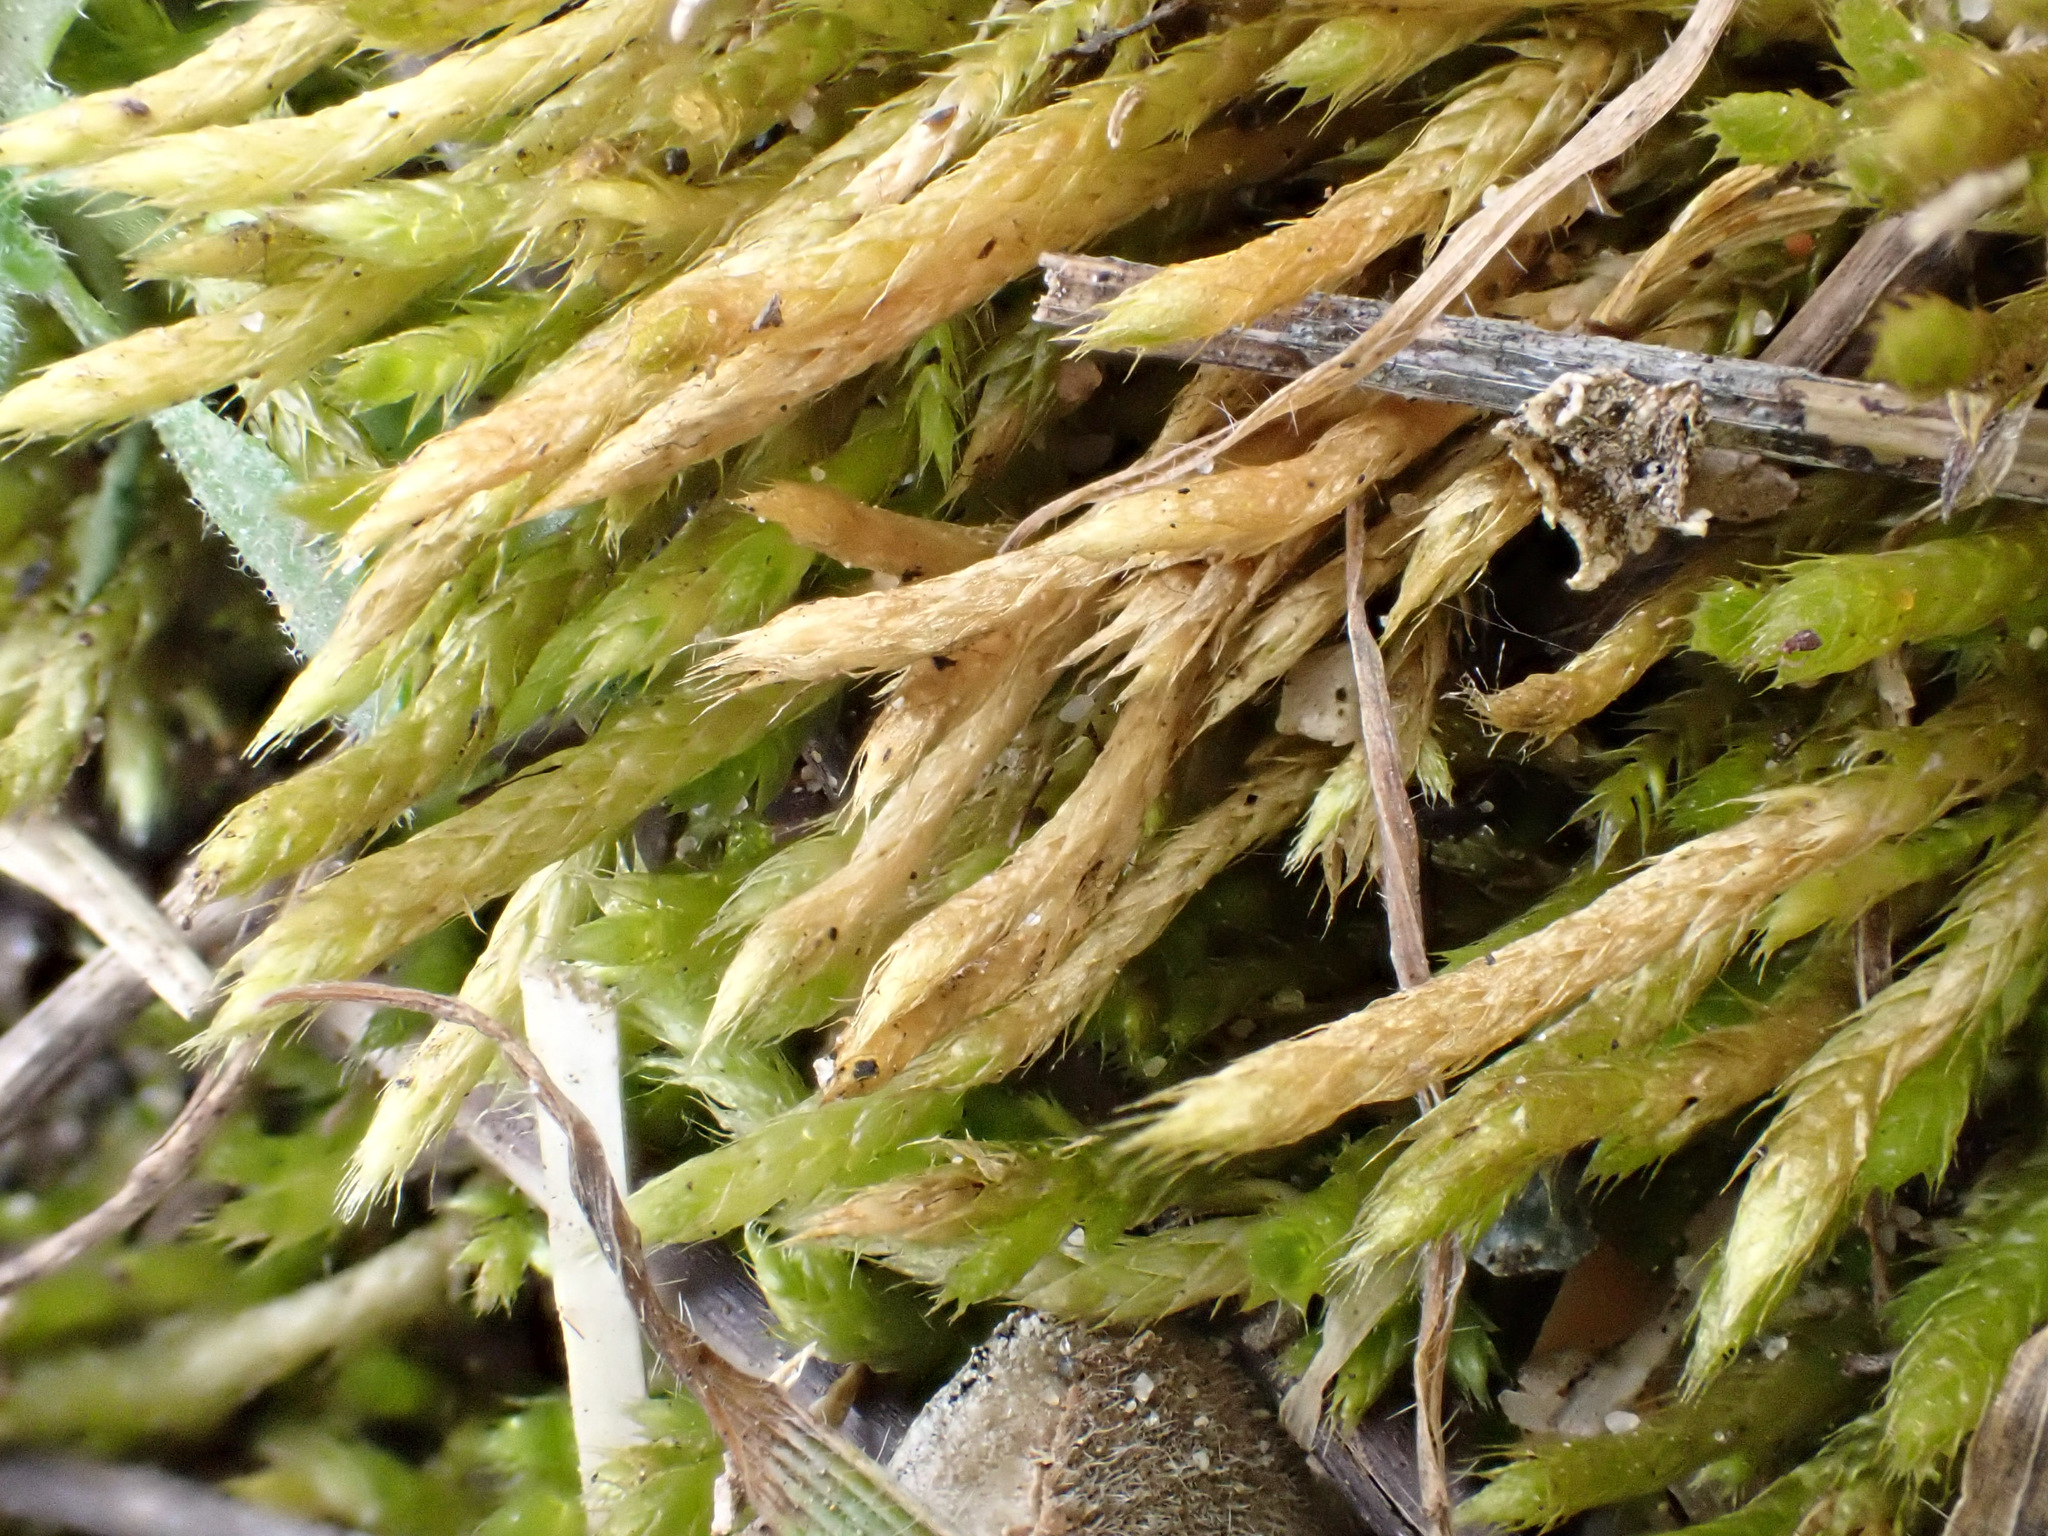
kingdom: Plantae
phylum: Bryophyta
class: Bryopsida
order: Hypnales
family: Brachytheciaceae
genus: Brachythecium
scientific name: Brachythecium albicans
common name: Whitish ragged moss
